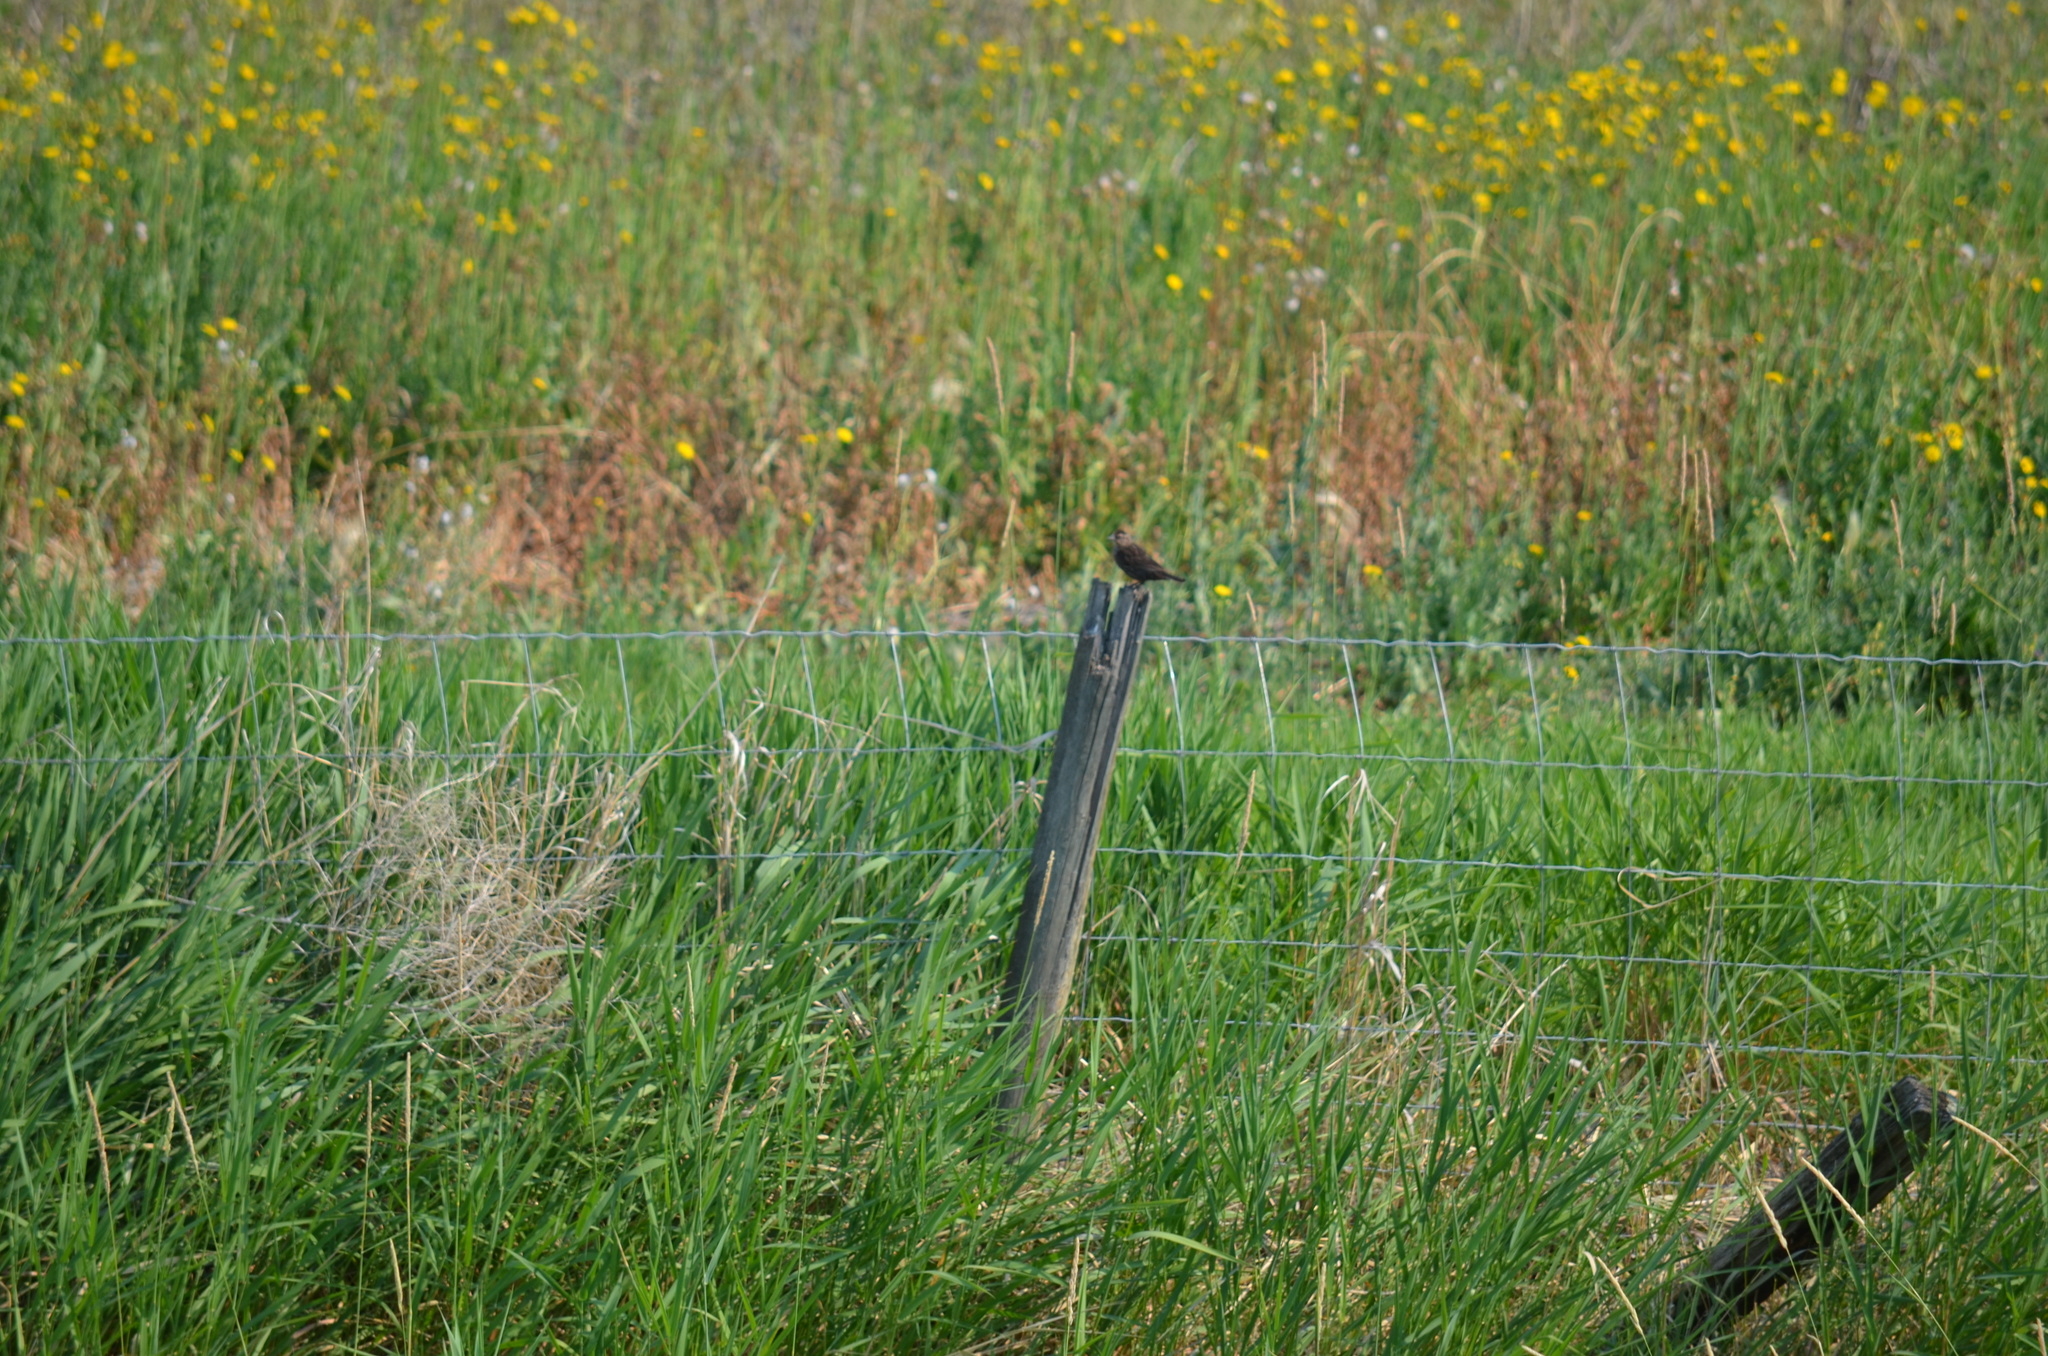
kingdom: Animalia
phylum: Chordata
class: Aves
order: Passeriformes
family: Icteridae
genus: Agelaius
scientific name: Agelaius phoeniceus
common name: Red-winged blackbird
